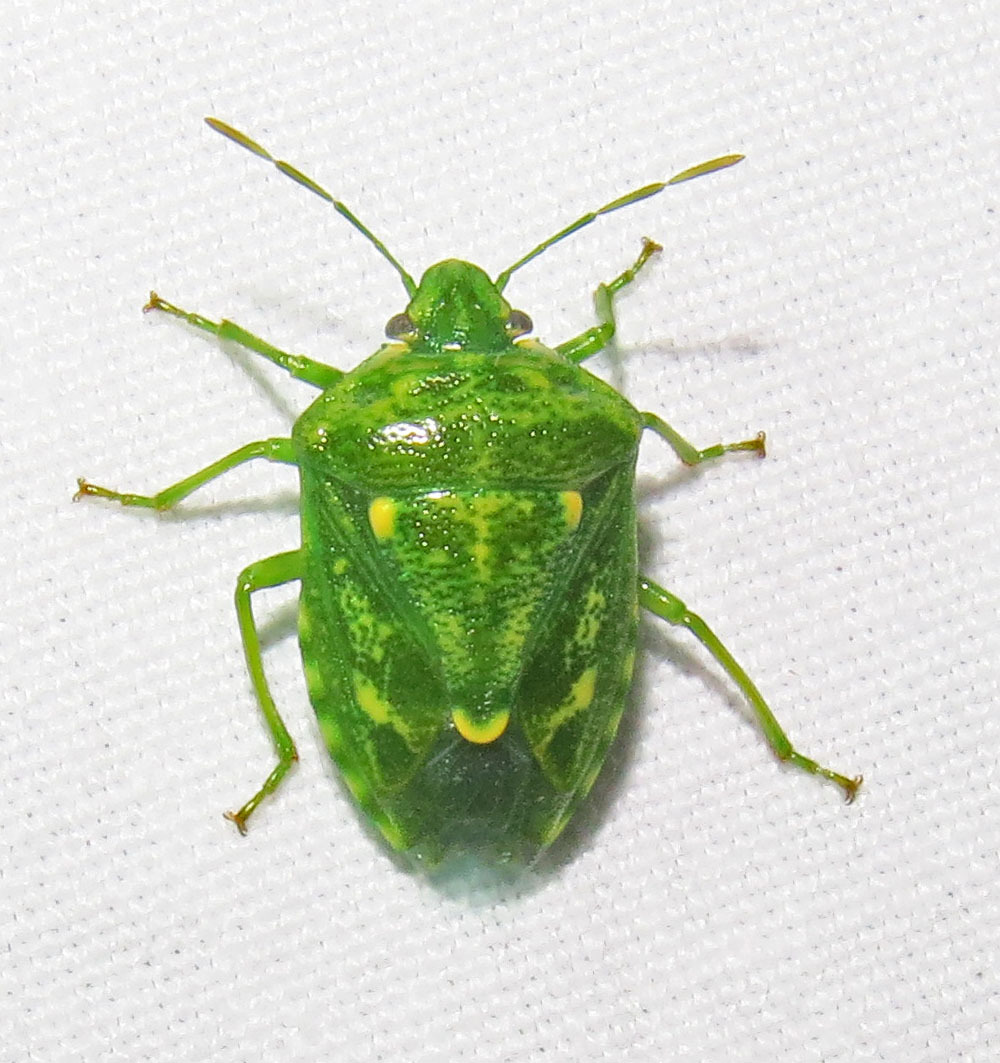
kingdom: Animalia
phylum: Arthropoda
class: Insecta
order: Hemiptera
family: Pentatomidae
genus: Banasa
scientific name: Banasa euchlora
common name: Cedar berry bug
